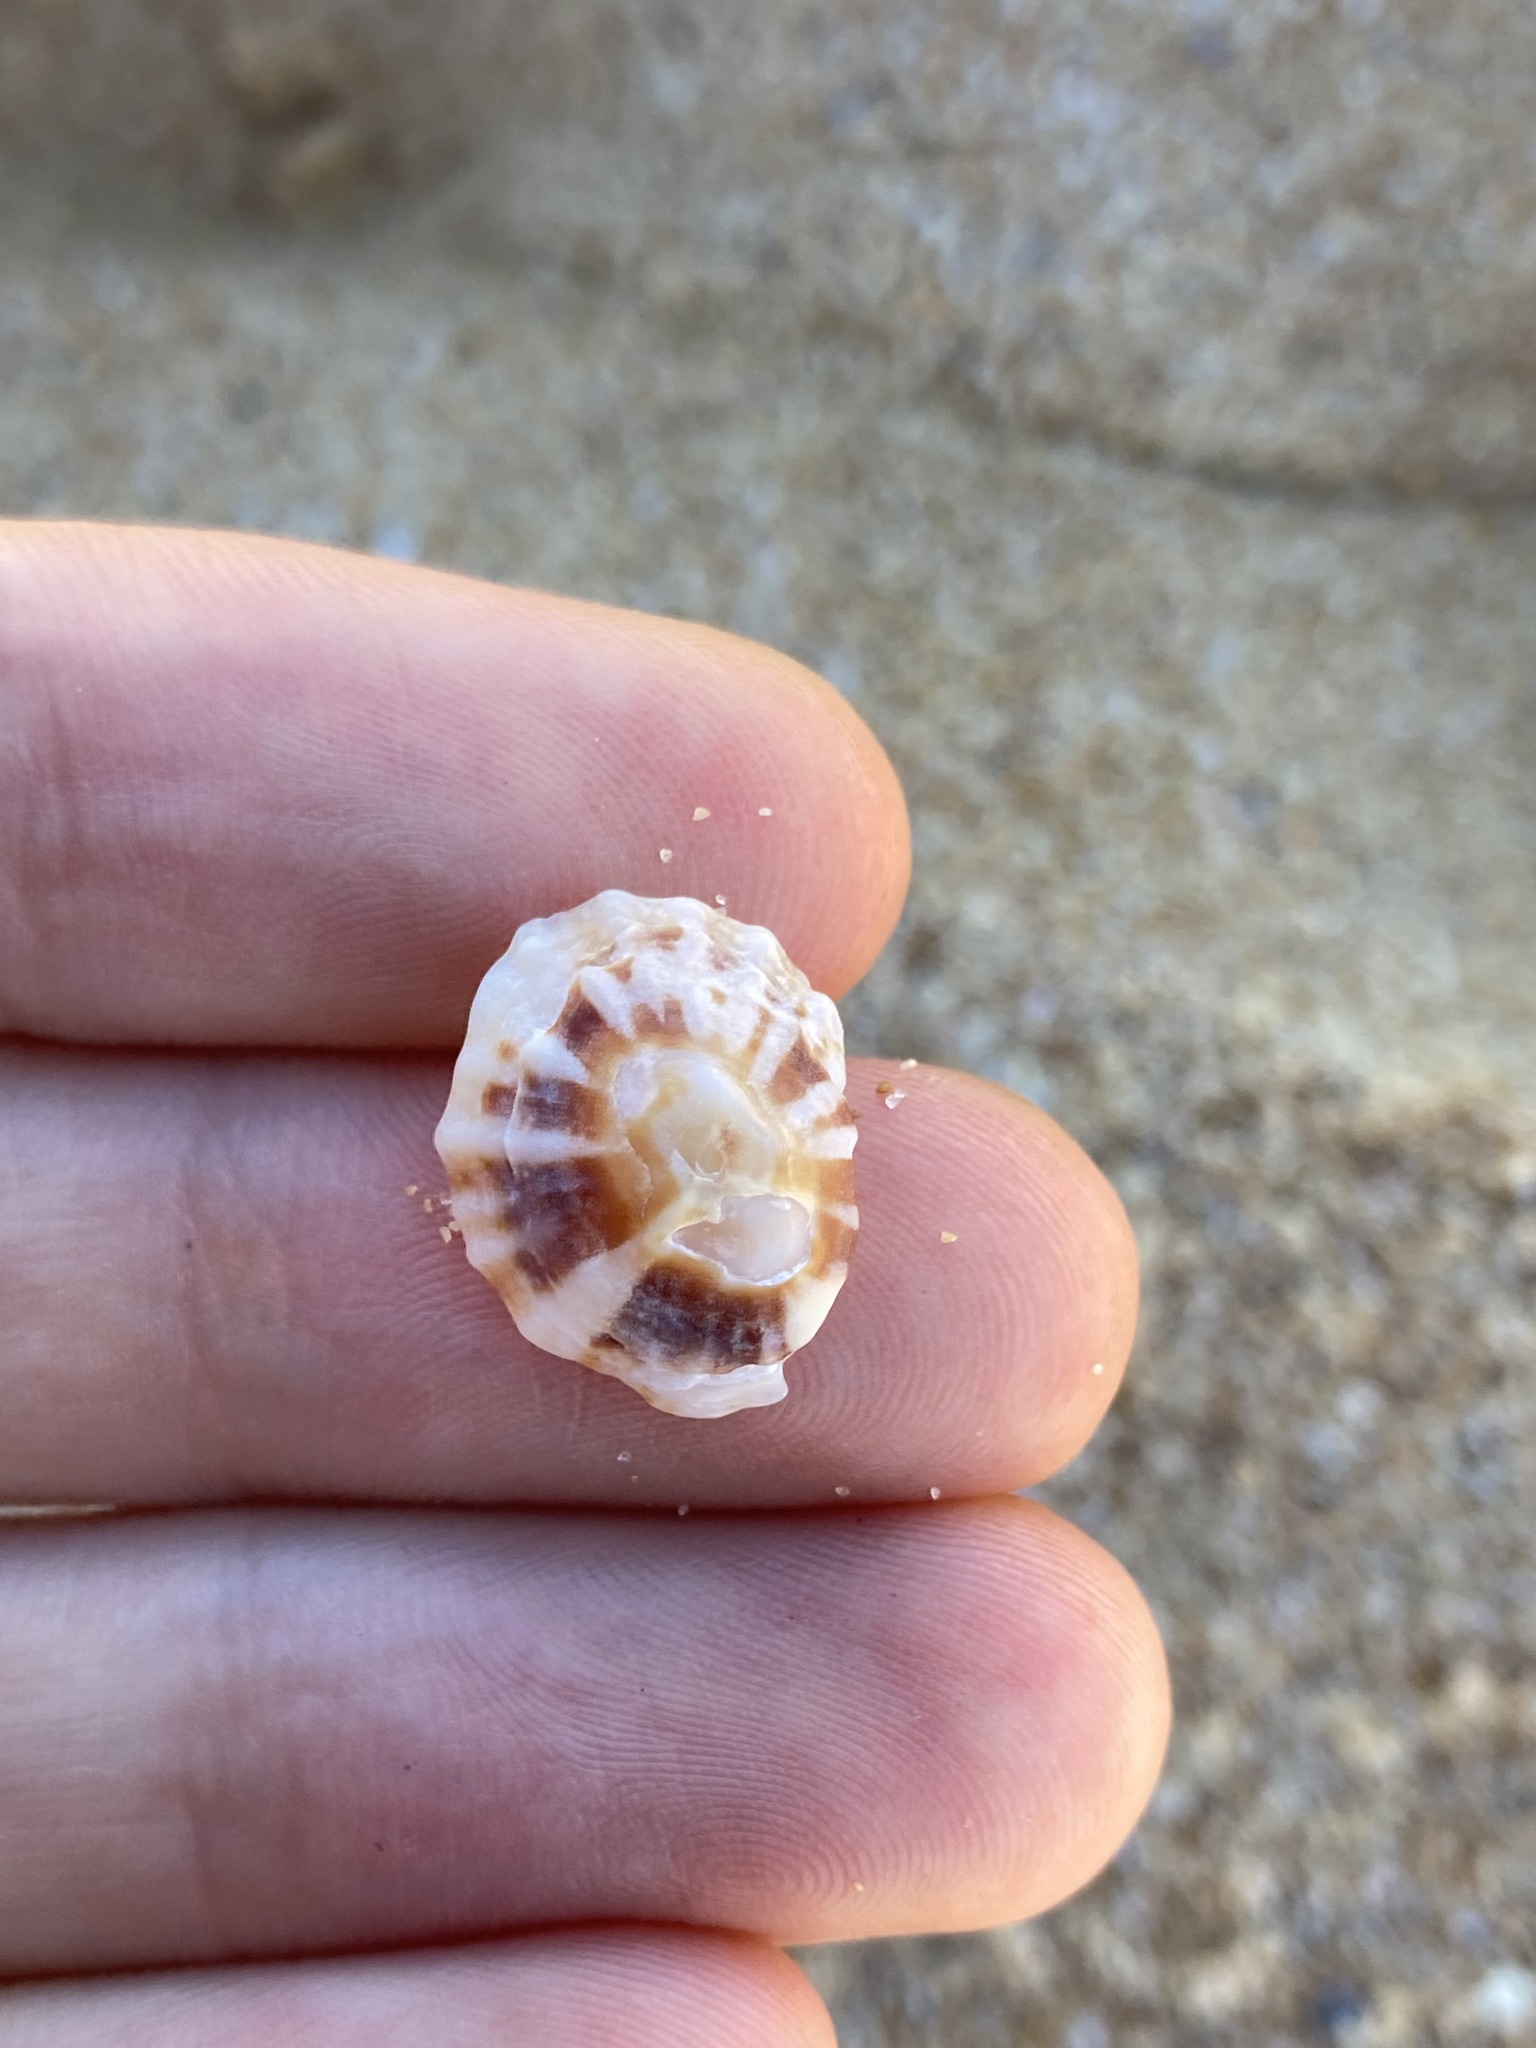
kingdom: Animalia
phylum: Mollusca
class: Gastropoda
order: Siphonariida
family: Siphonariidae
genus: Siphonaria
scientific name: Siphonaria denticulata
